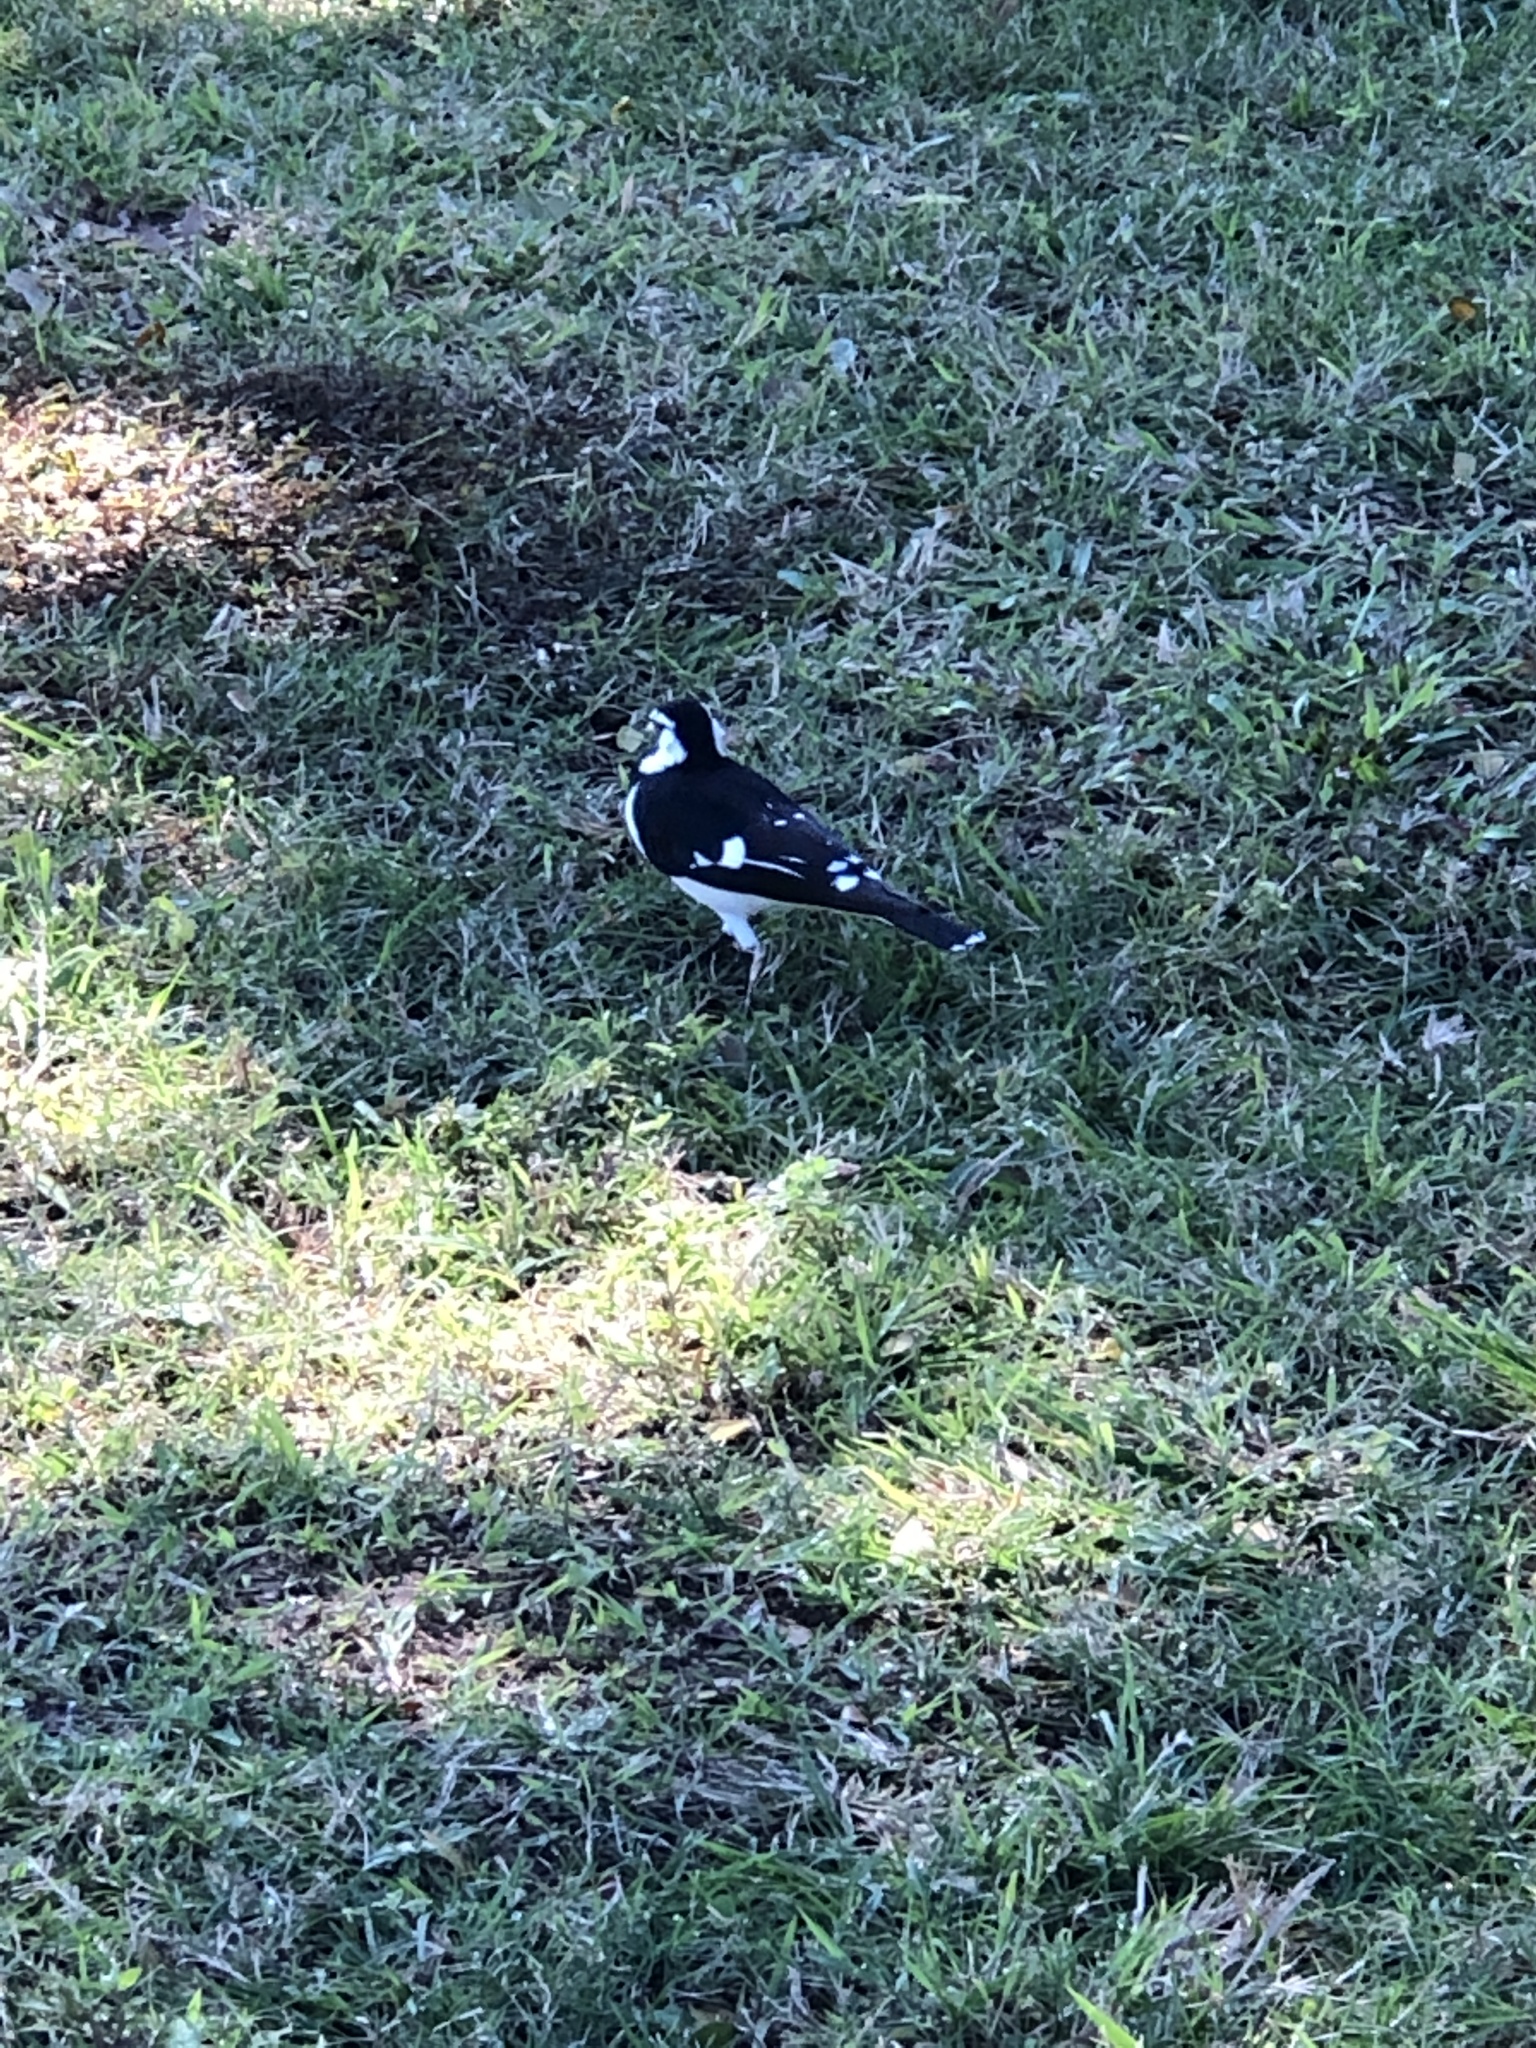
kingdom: Animalia
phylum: Chordata
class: Aves
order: Passeriformes
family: Monarchidae
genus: Grallina
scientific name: Grallina cyanoleuca
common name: Magpie-lark
